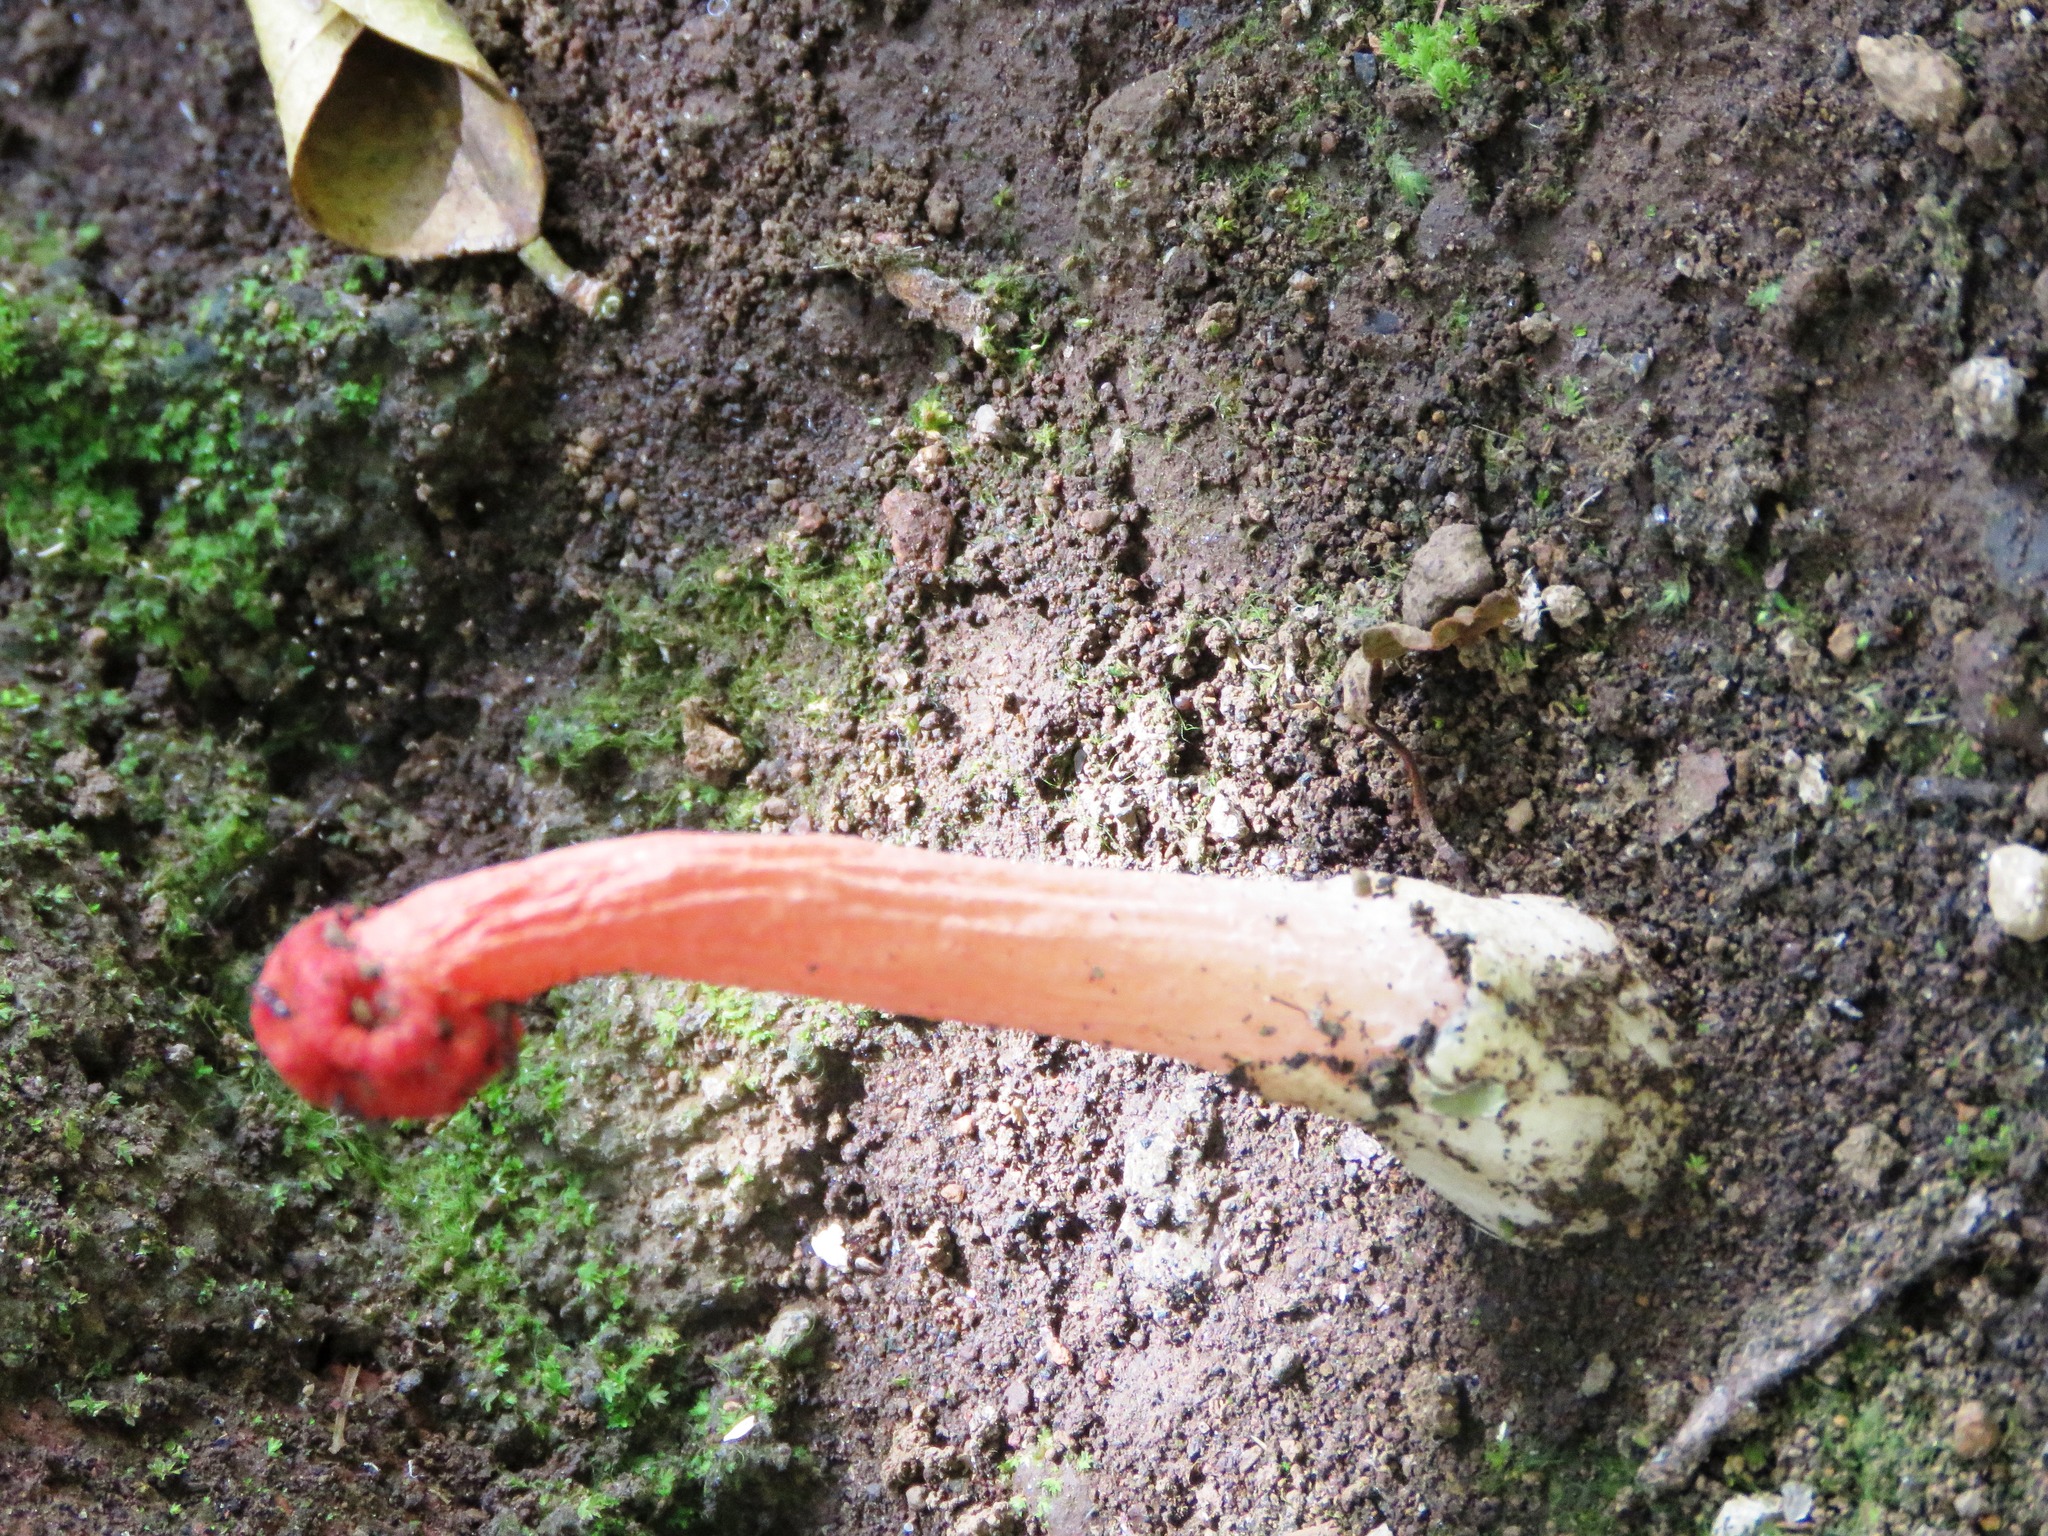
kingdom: Fungi
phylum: Basidiomycota
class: Agaricomycetes
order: Phallales
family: Phallaceae
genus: Lysurus
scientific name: Lysurus periphragmoides
